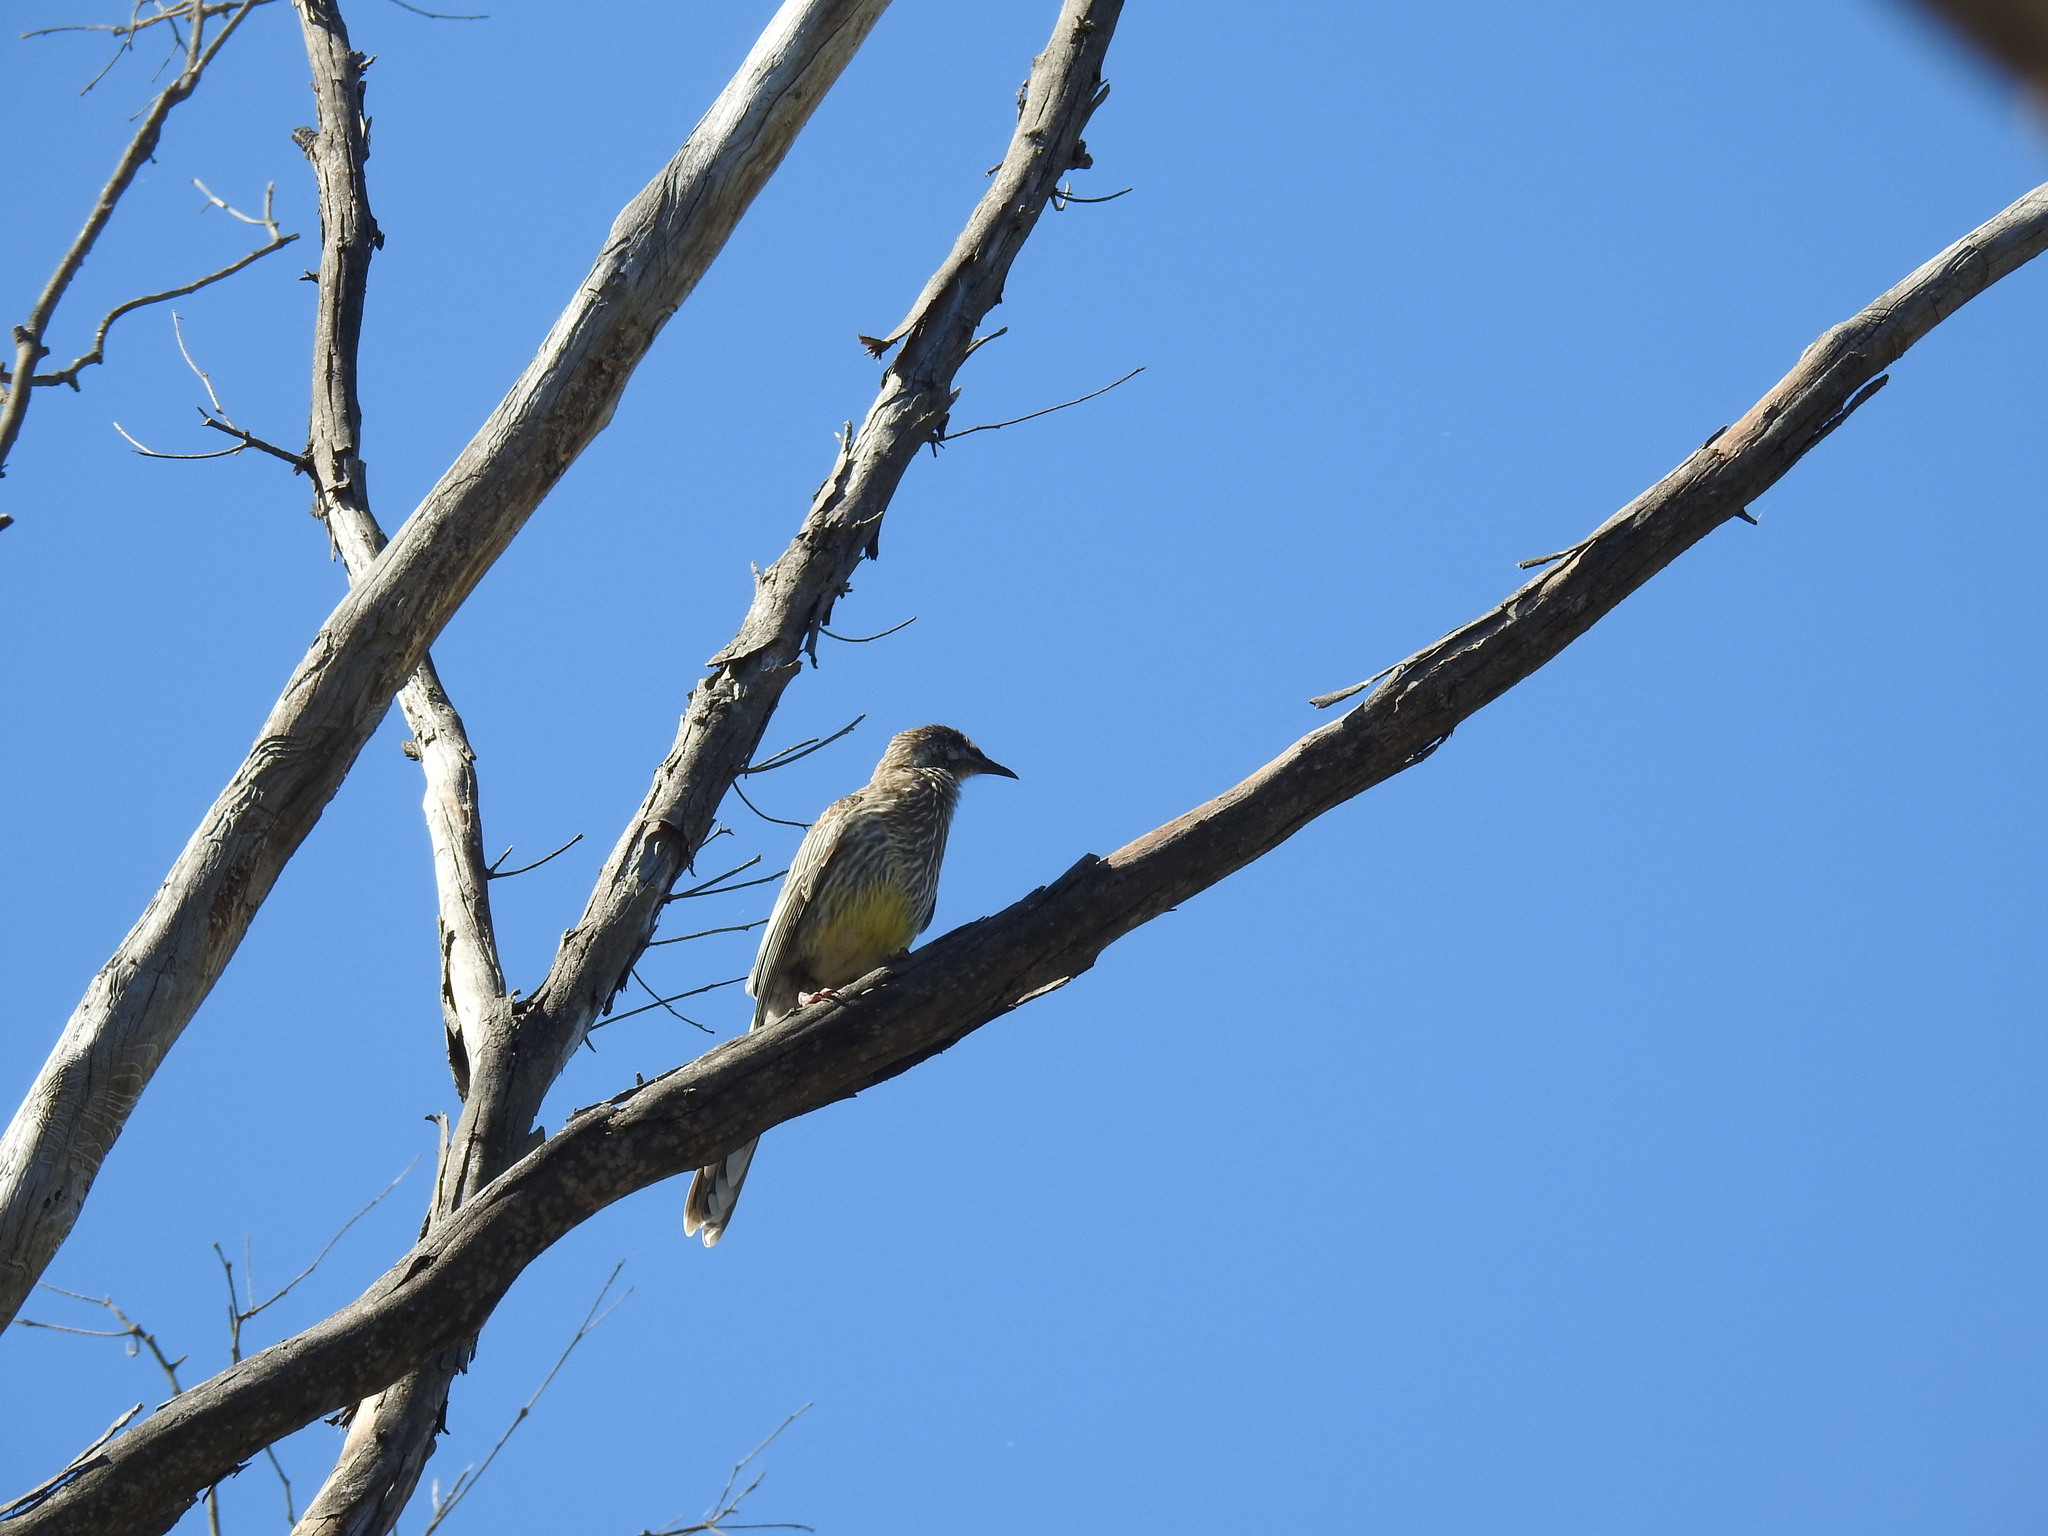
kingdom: Animalia
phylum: Chordata
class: Aves
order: Passeriformes
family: Meliphagidae
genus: Anthochaera
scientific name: Anthochaera carunculata
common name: Red wattlebird
